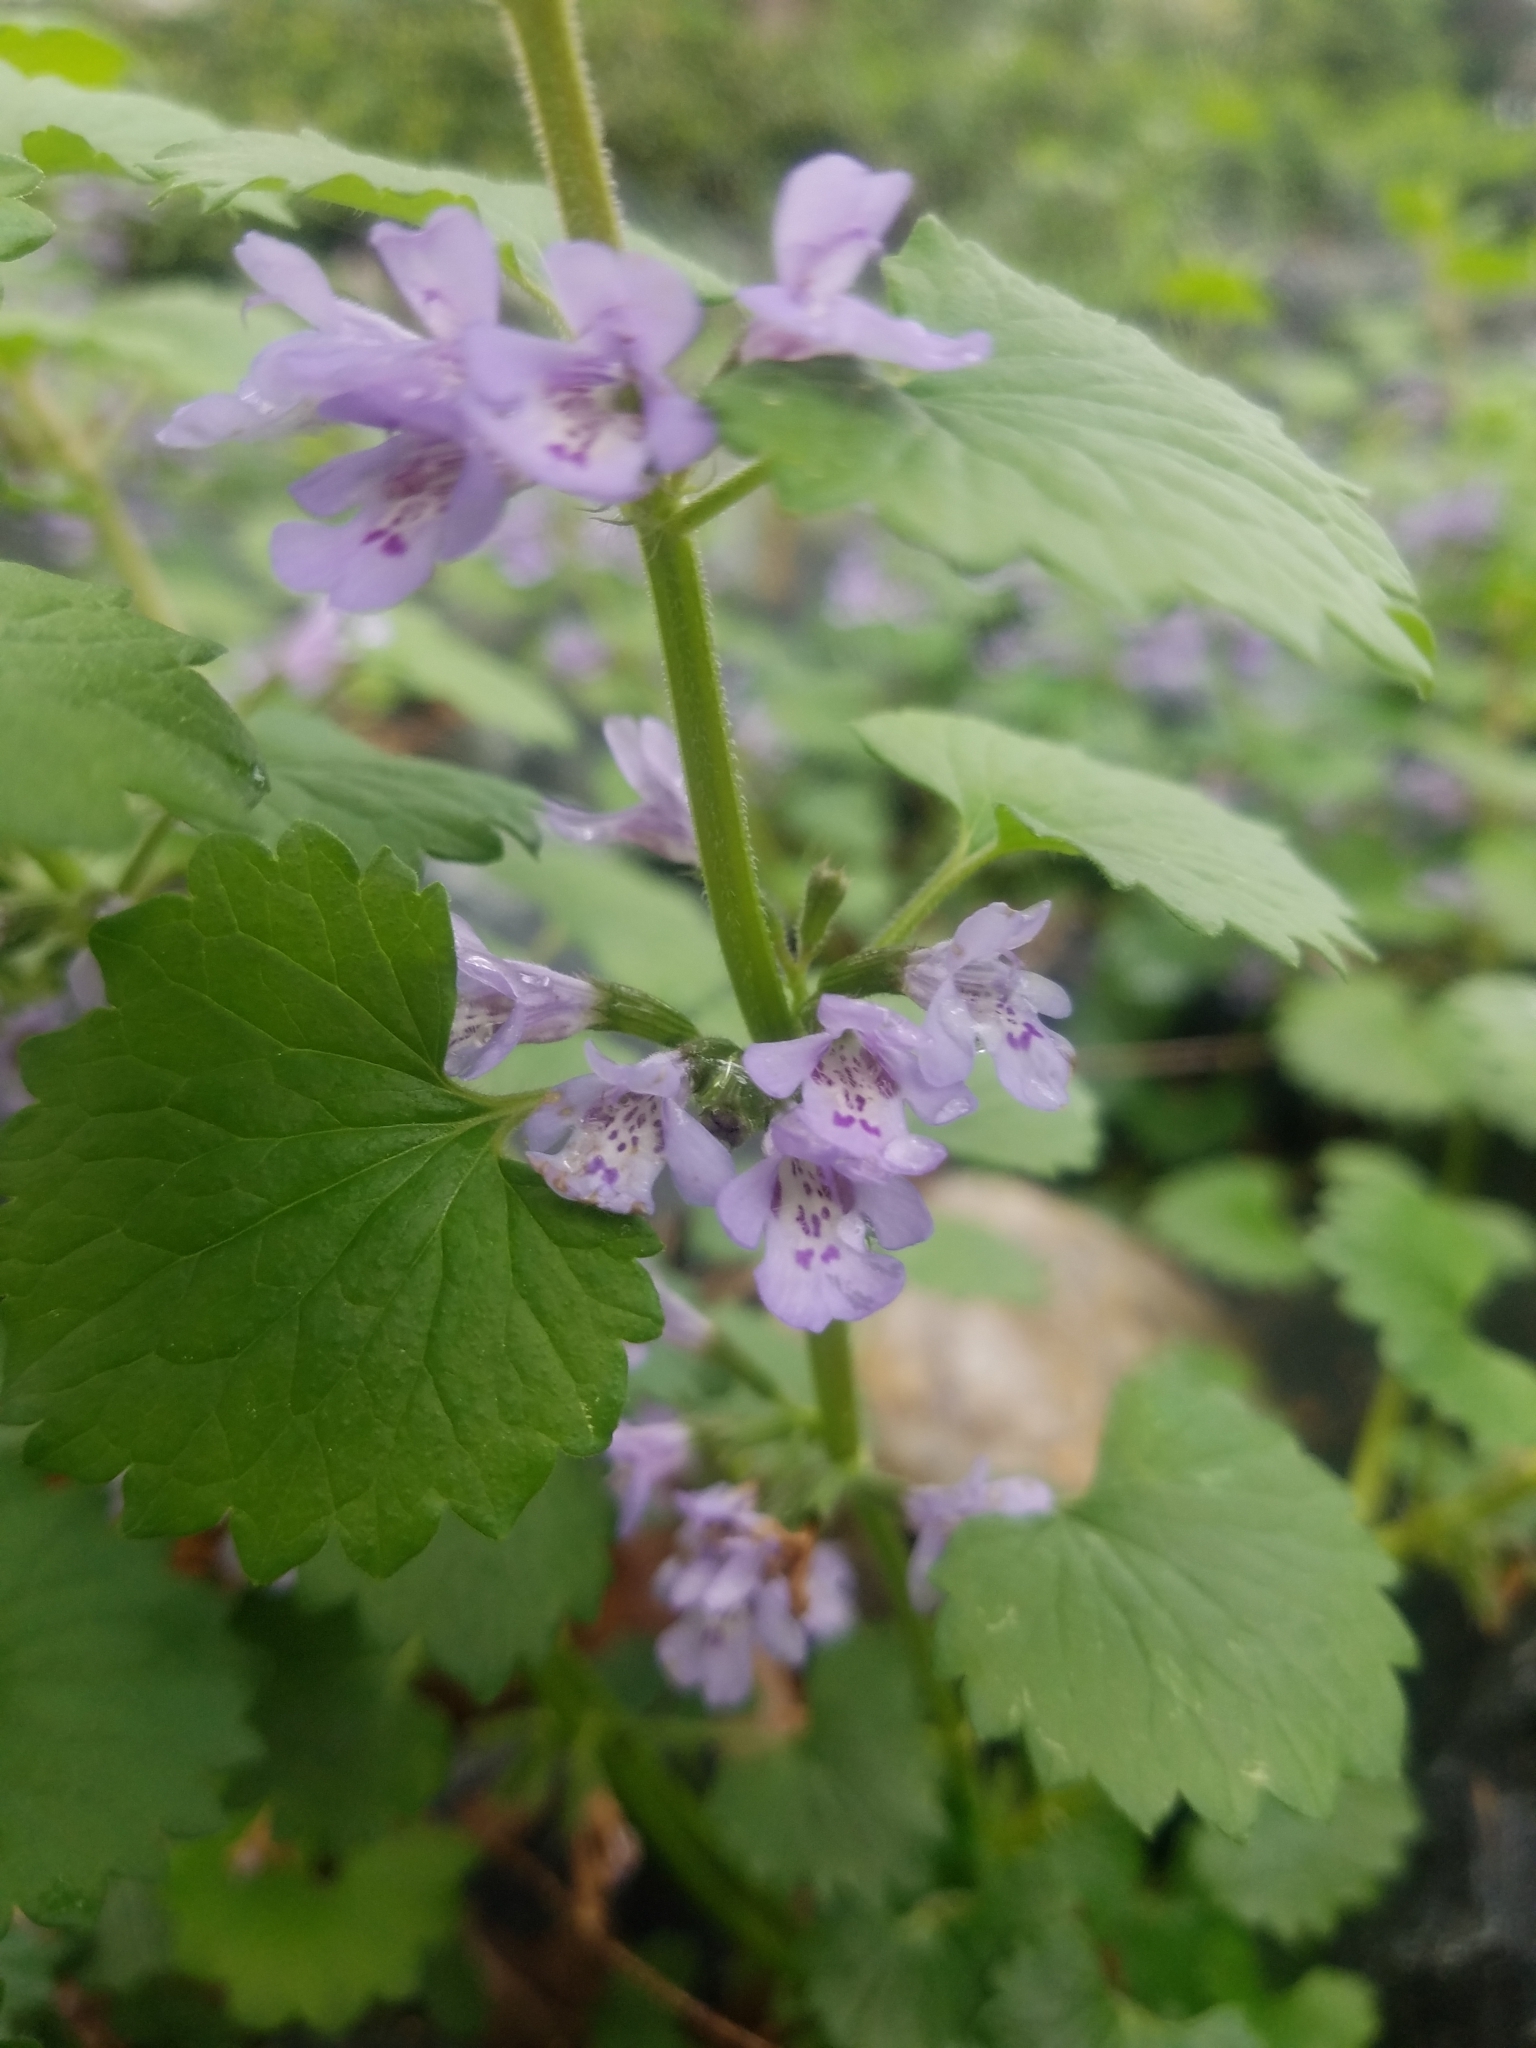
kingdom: Plantae
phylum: Tracheophyta
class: Magnoliopsida
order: Lamiales
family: Lamiaceae
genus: Glechoma
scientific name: Glechoma hederacea
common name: Ground ivy
